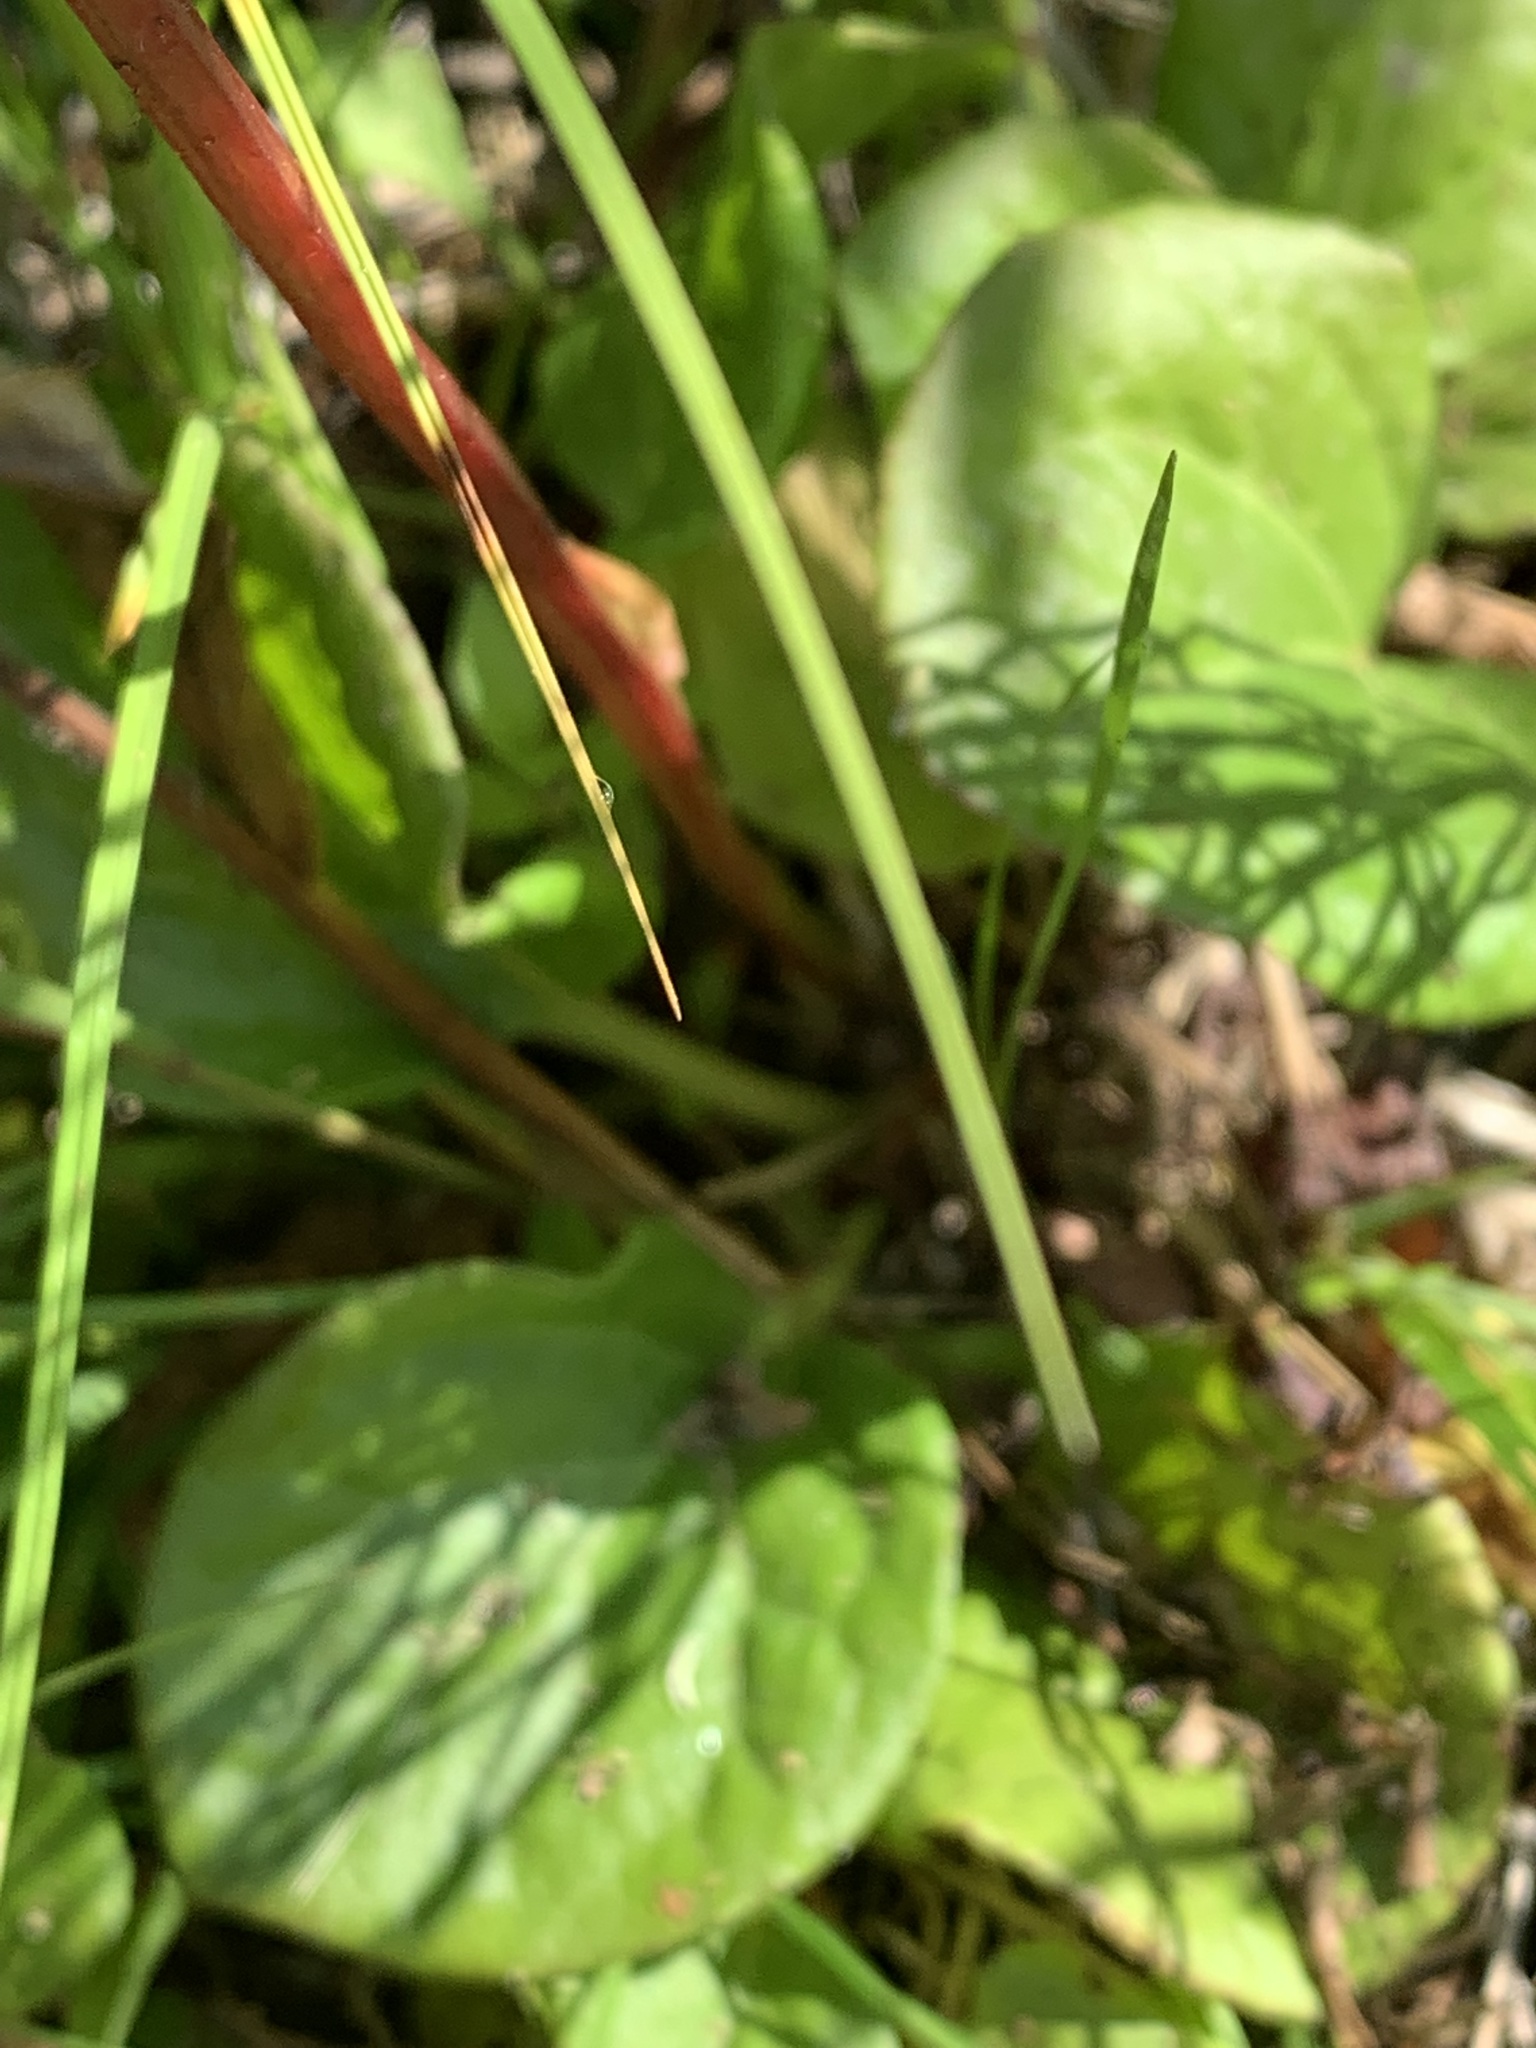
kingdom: Plantae
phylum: Tracheophyta
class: Magnoliopsida
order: Ericales
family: Ericaceae
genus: Pyrola
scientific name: Pyrola asarifolia
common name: Bog wintergreen
